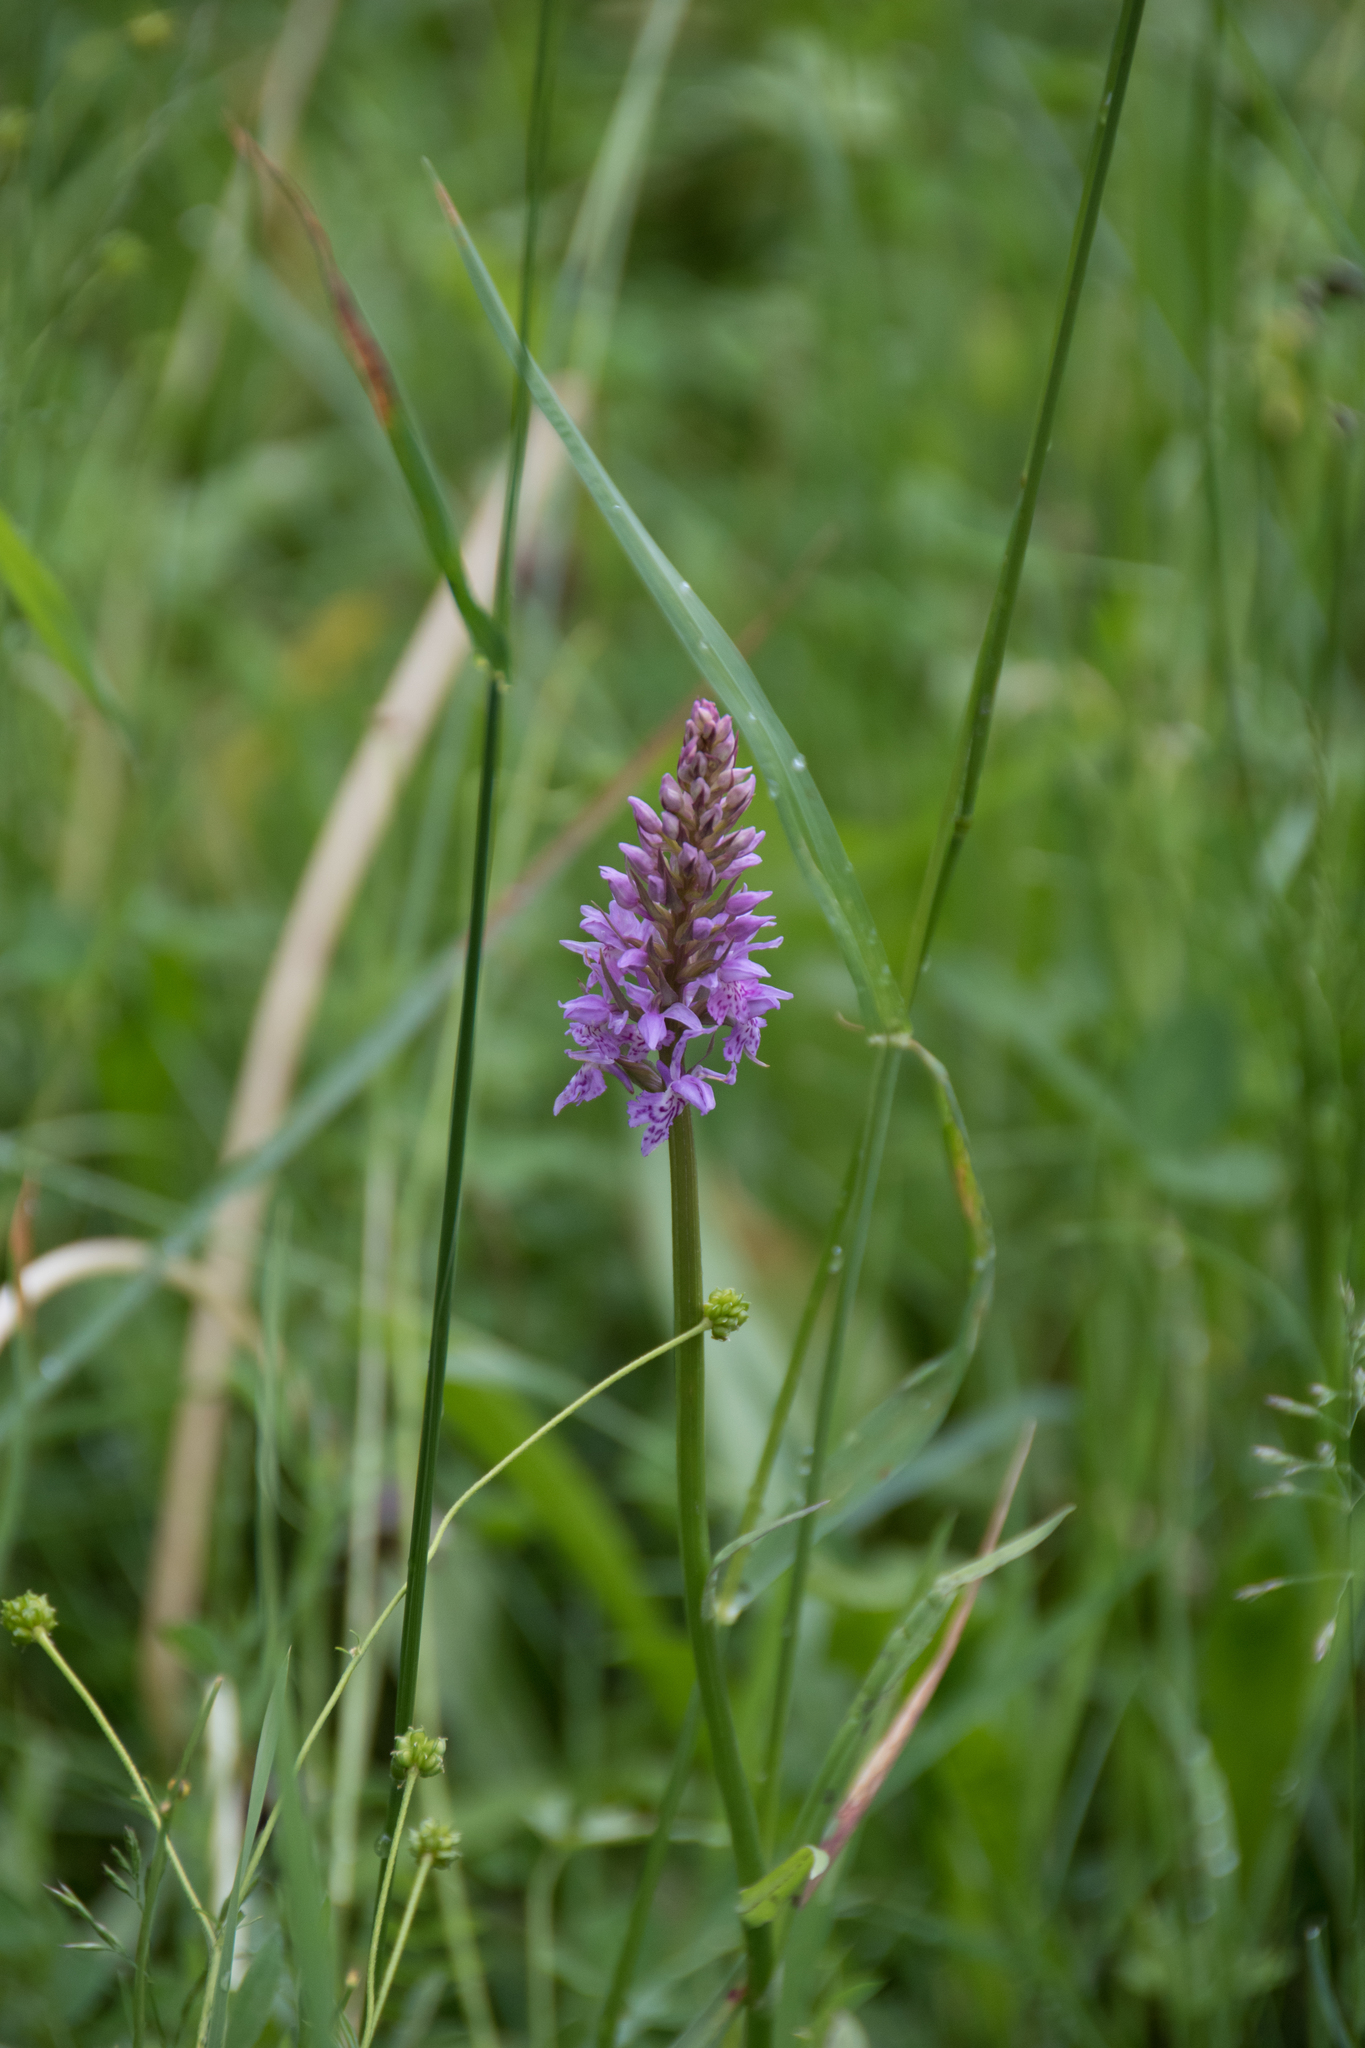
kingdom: Plantae
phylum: Tracheophyta
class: Liliopsida
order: Asparagales
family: Orchidaceae
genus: Dactylorhiza
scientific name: Dactylorhiza maculata
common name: Heath spotted-orchid
